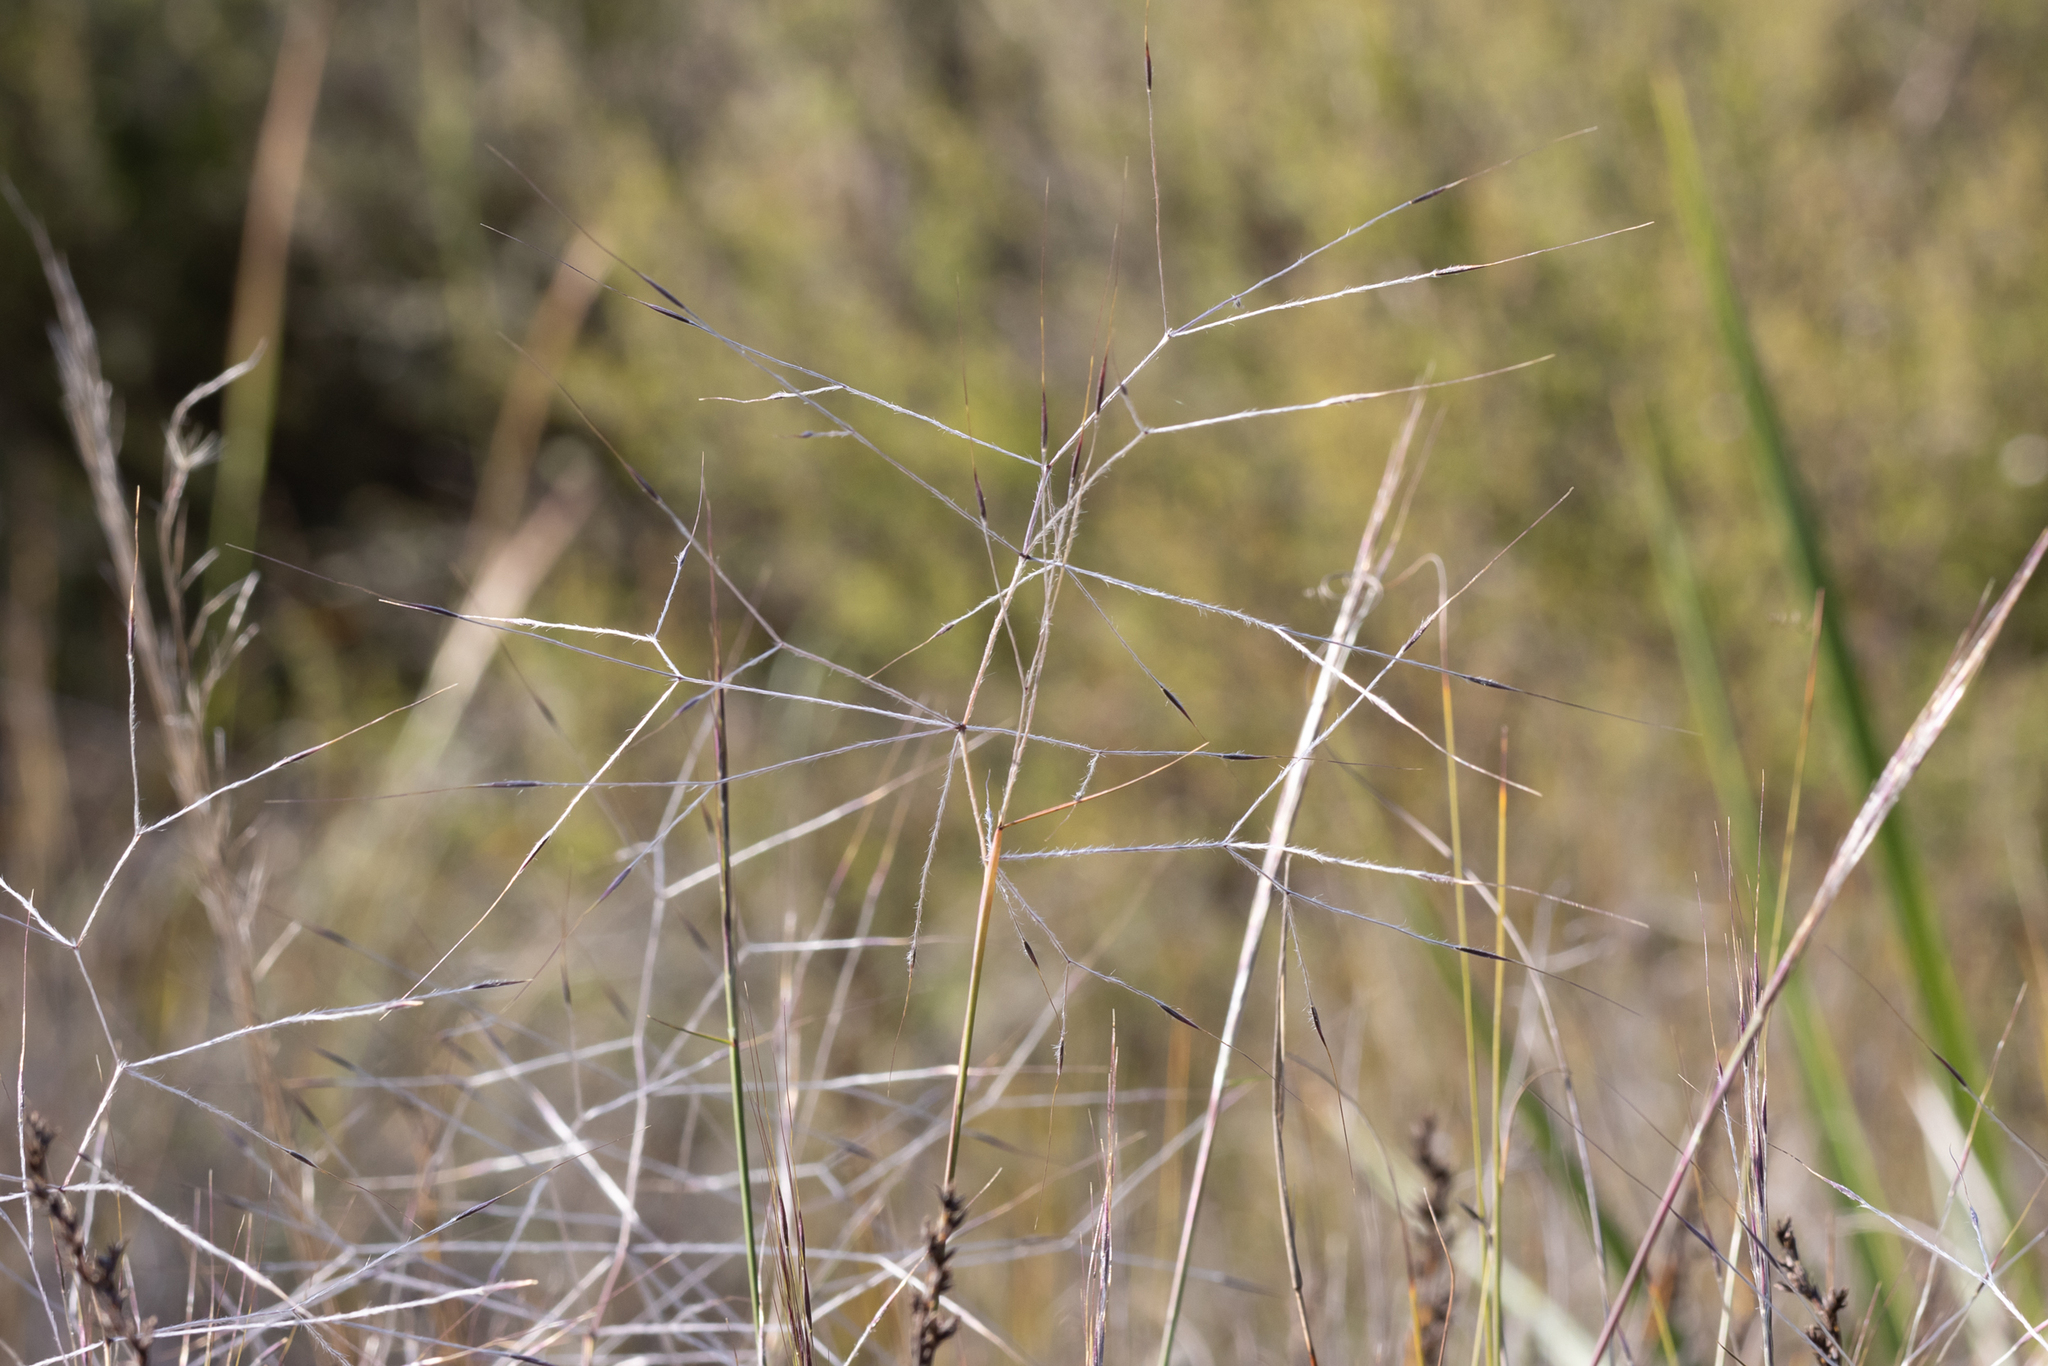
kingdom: Plantae
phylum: Tracheophyta
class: Liliopsida
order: Poales
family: Poaceae
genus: Austrostipa
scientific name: Austrostipa elegantissima
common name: Feather spear grass
